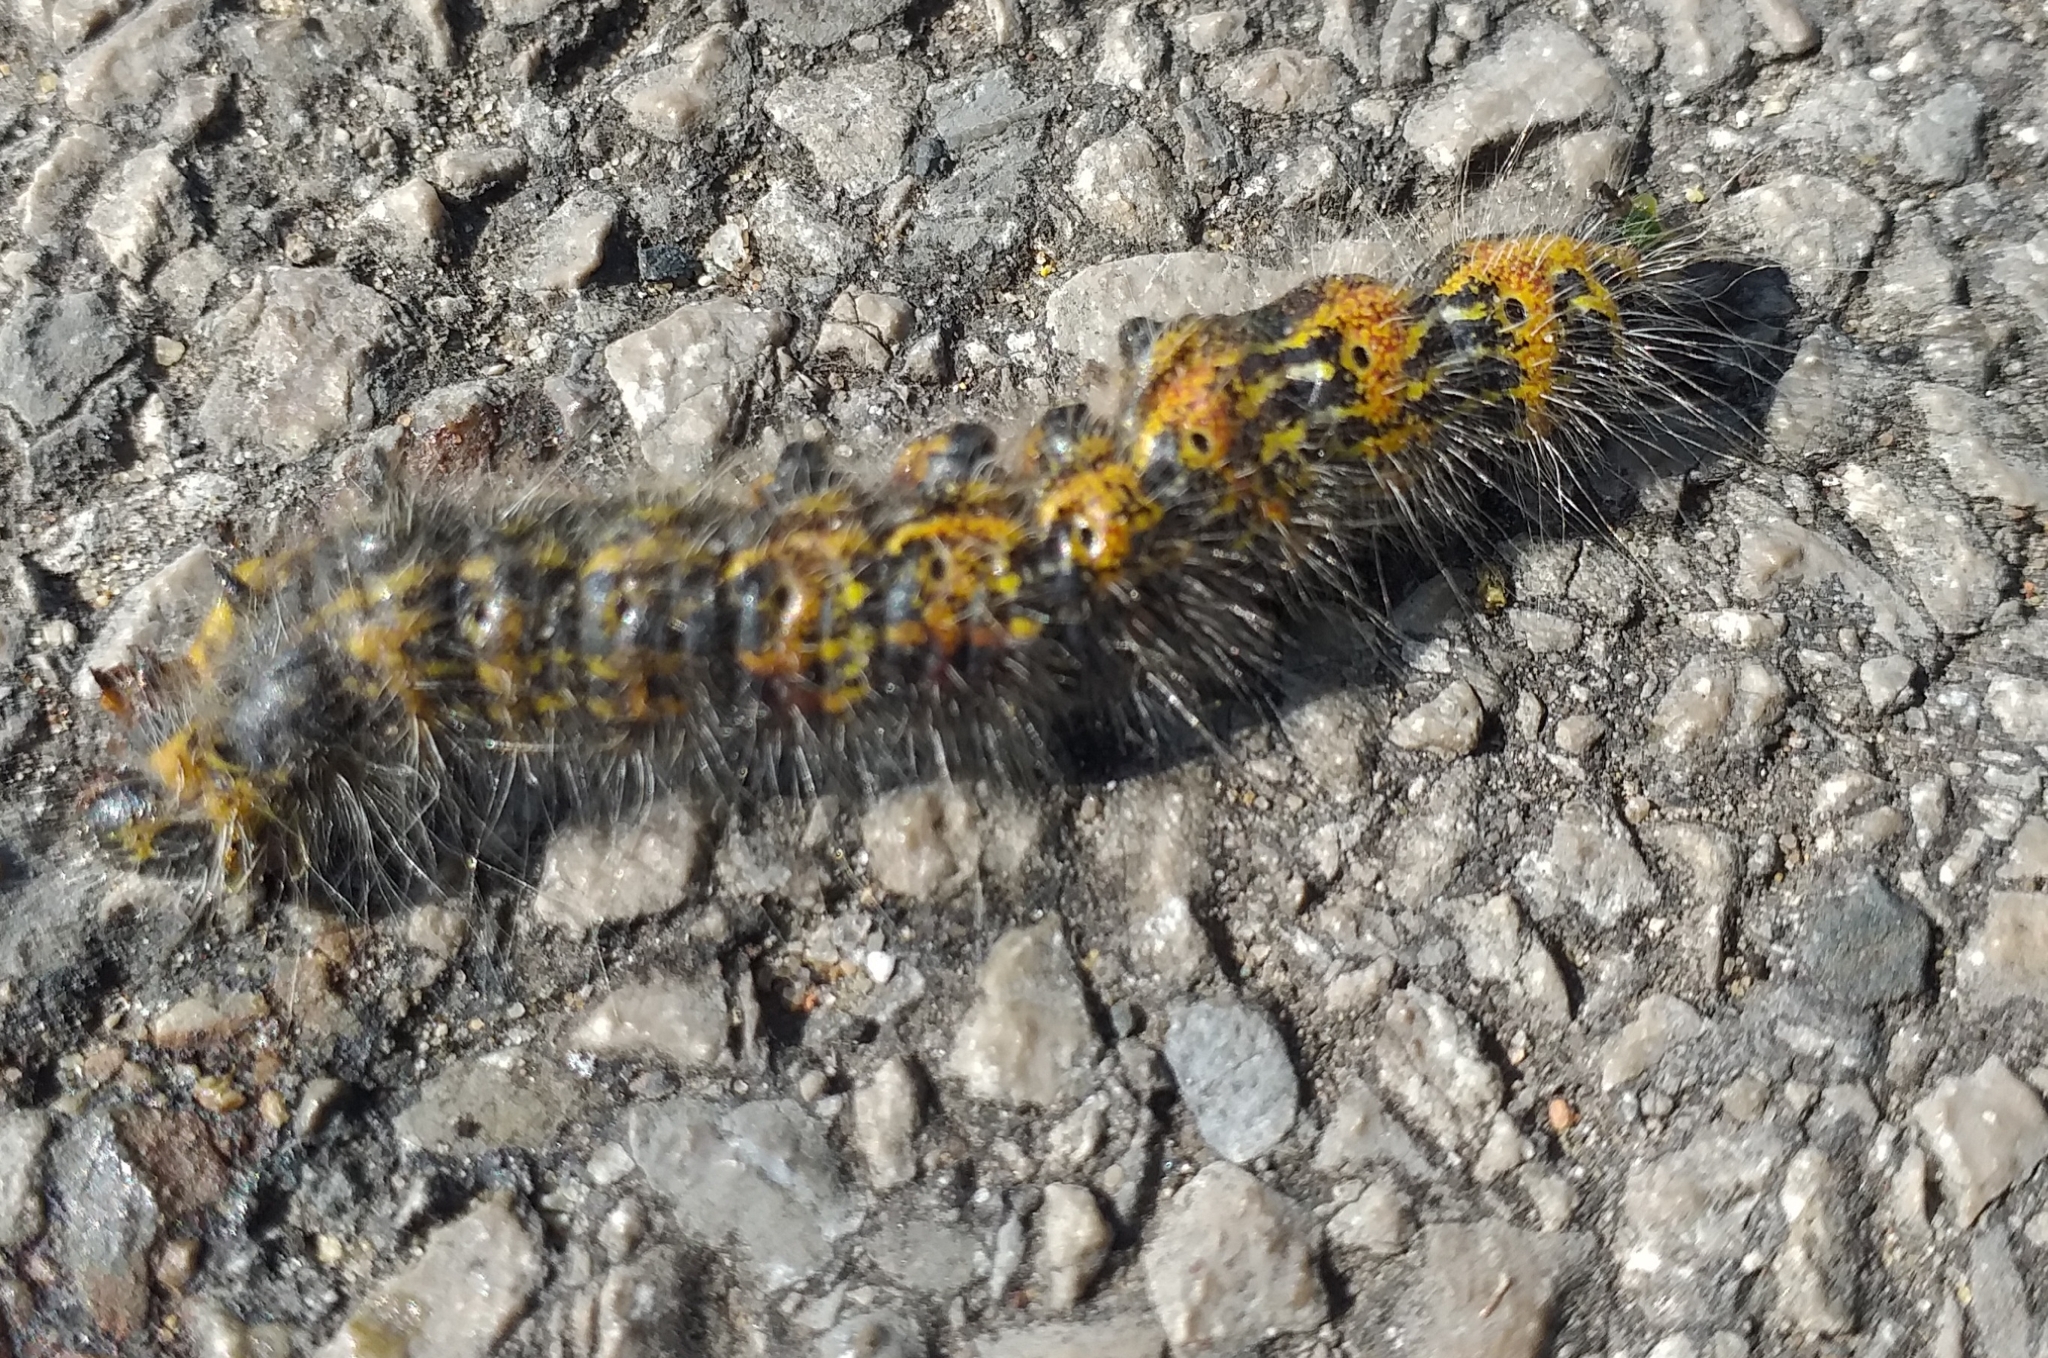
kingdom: Animalia
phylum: Arthropoda
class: Insecta
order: Lepidoptera
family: Notodontidae
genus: Phalera
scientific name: Phalera bucephala
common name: Buff-tip
